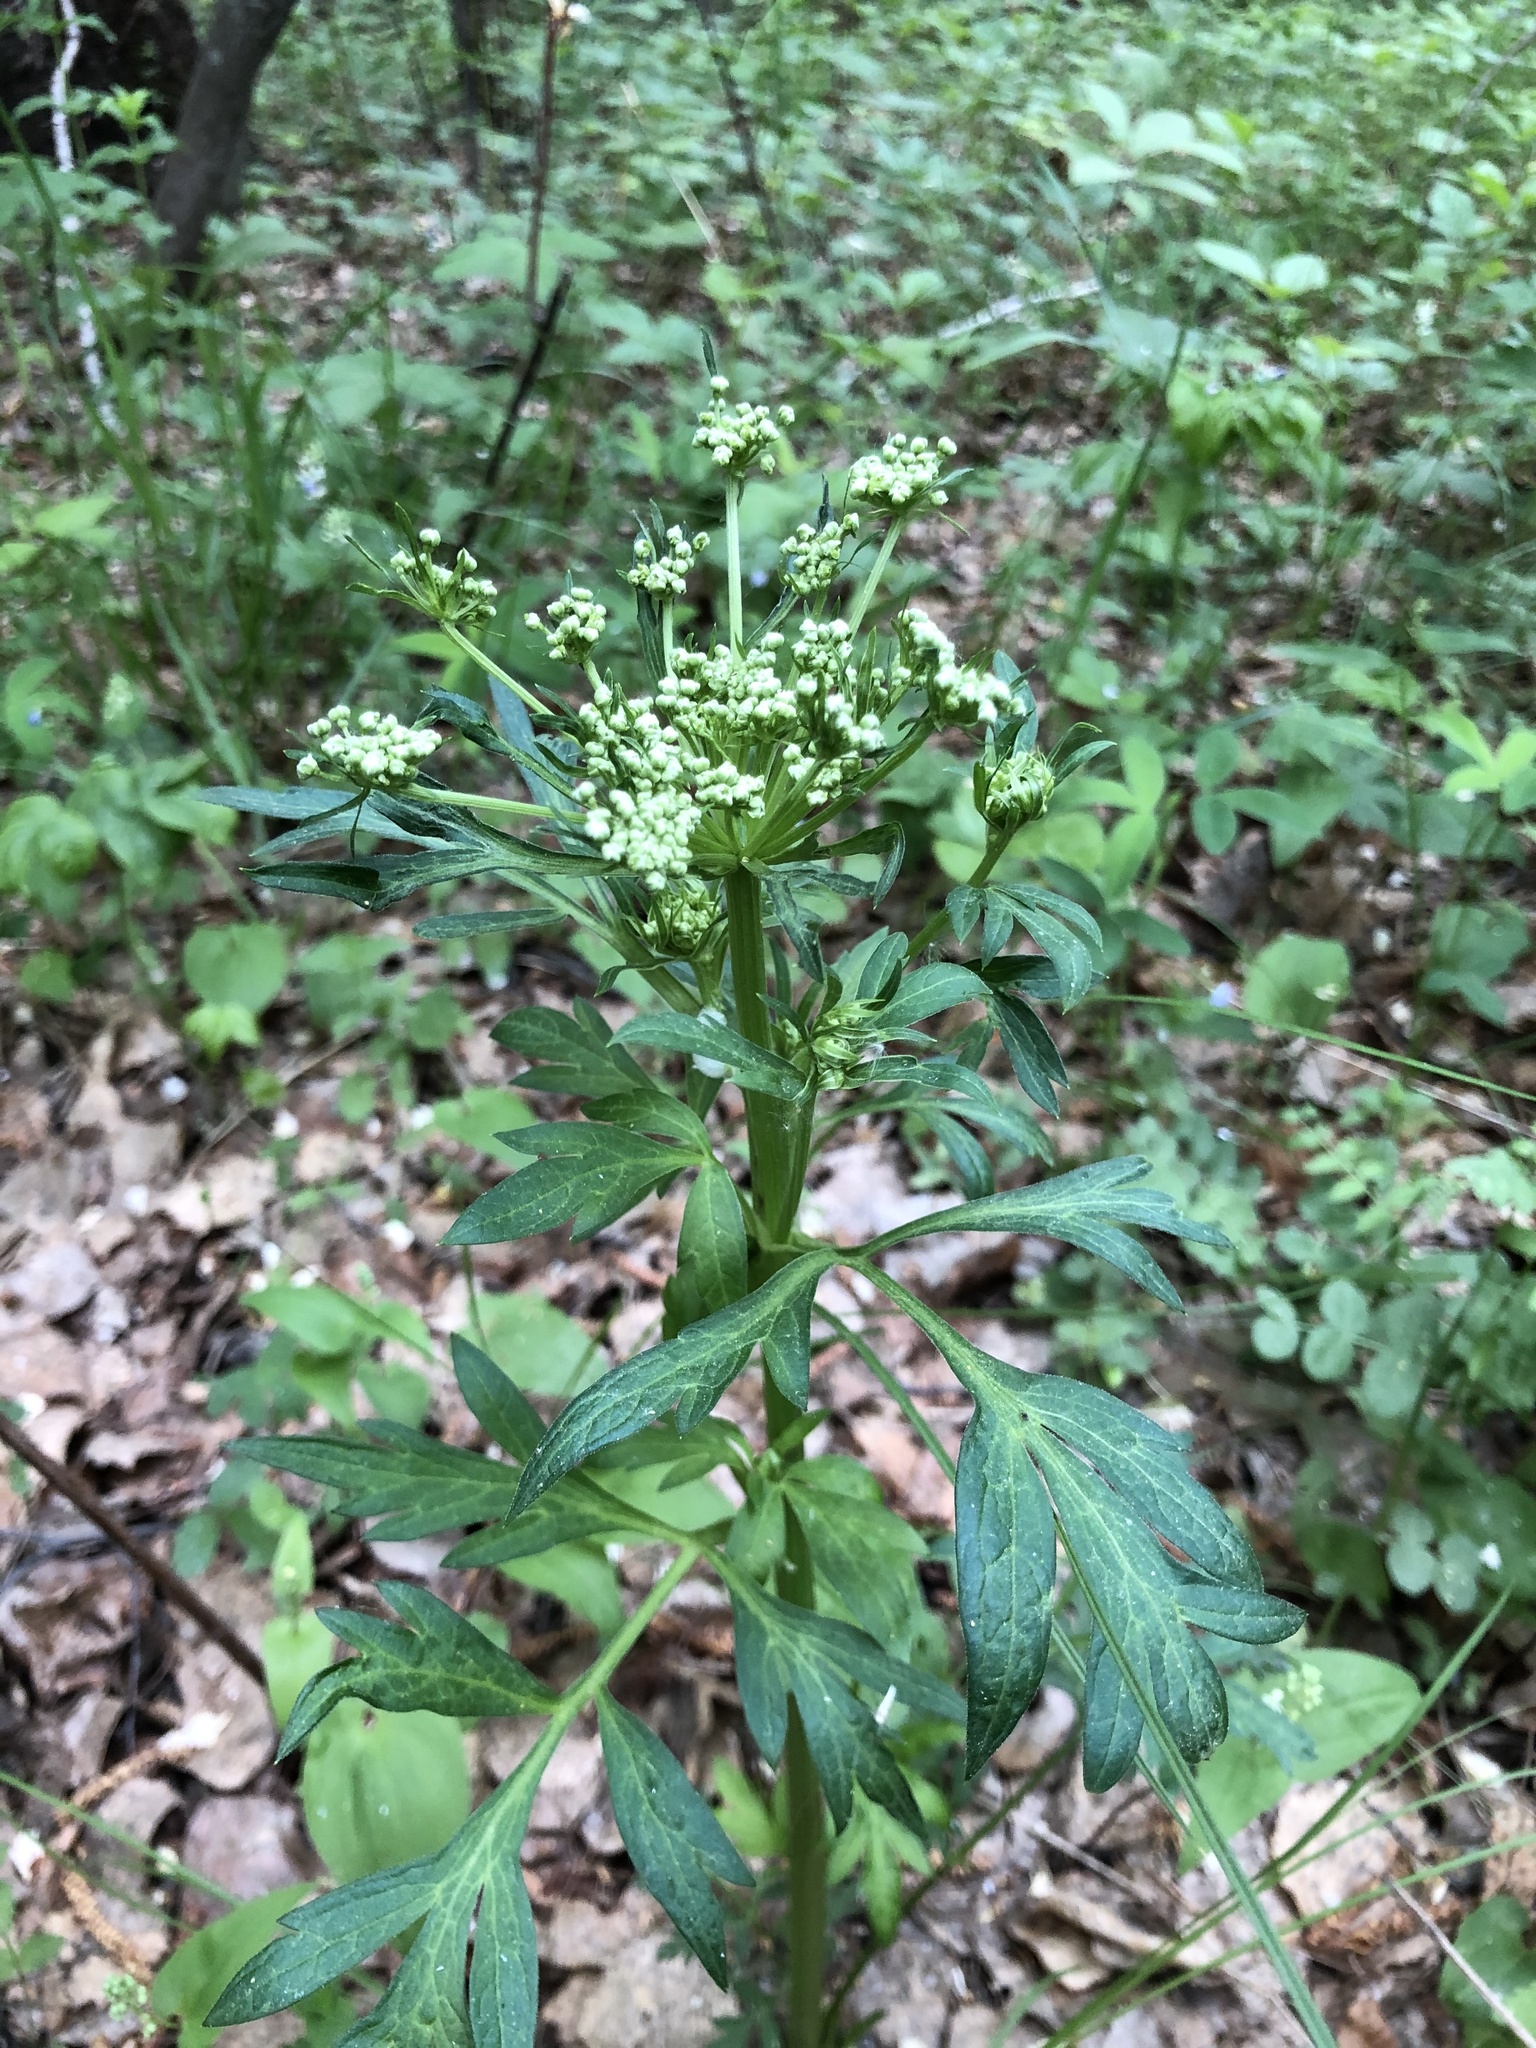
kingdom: Plantae
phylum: Tracheophyta
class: Magnoliopsida
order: Apiales
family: Apiaceae
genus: Pleurospermum
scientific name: Pleurospermum uralense
